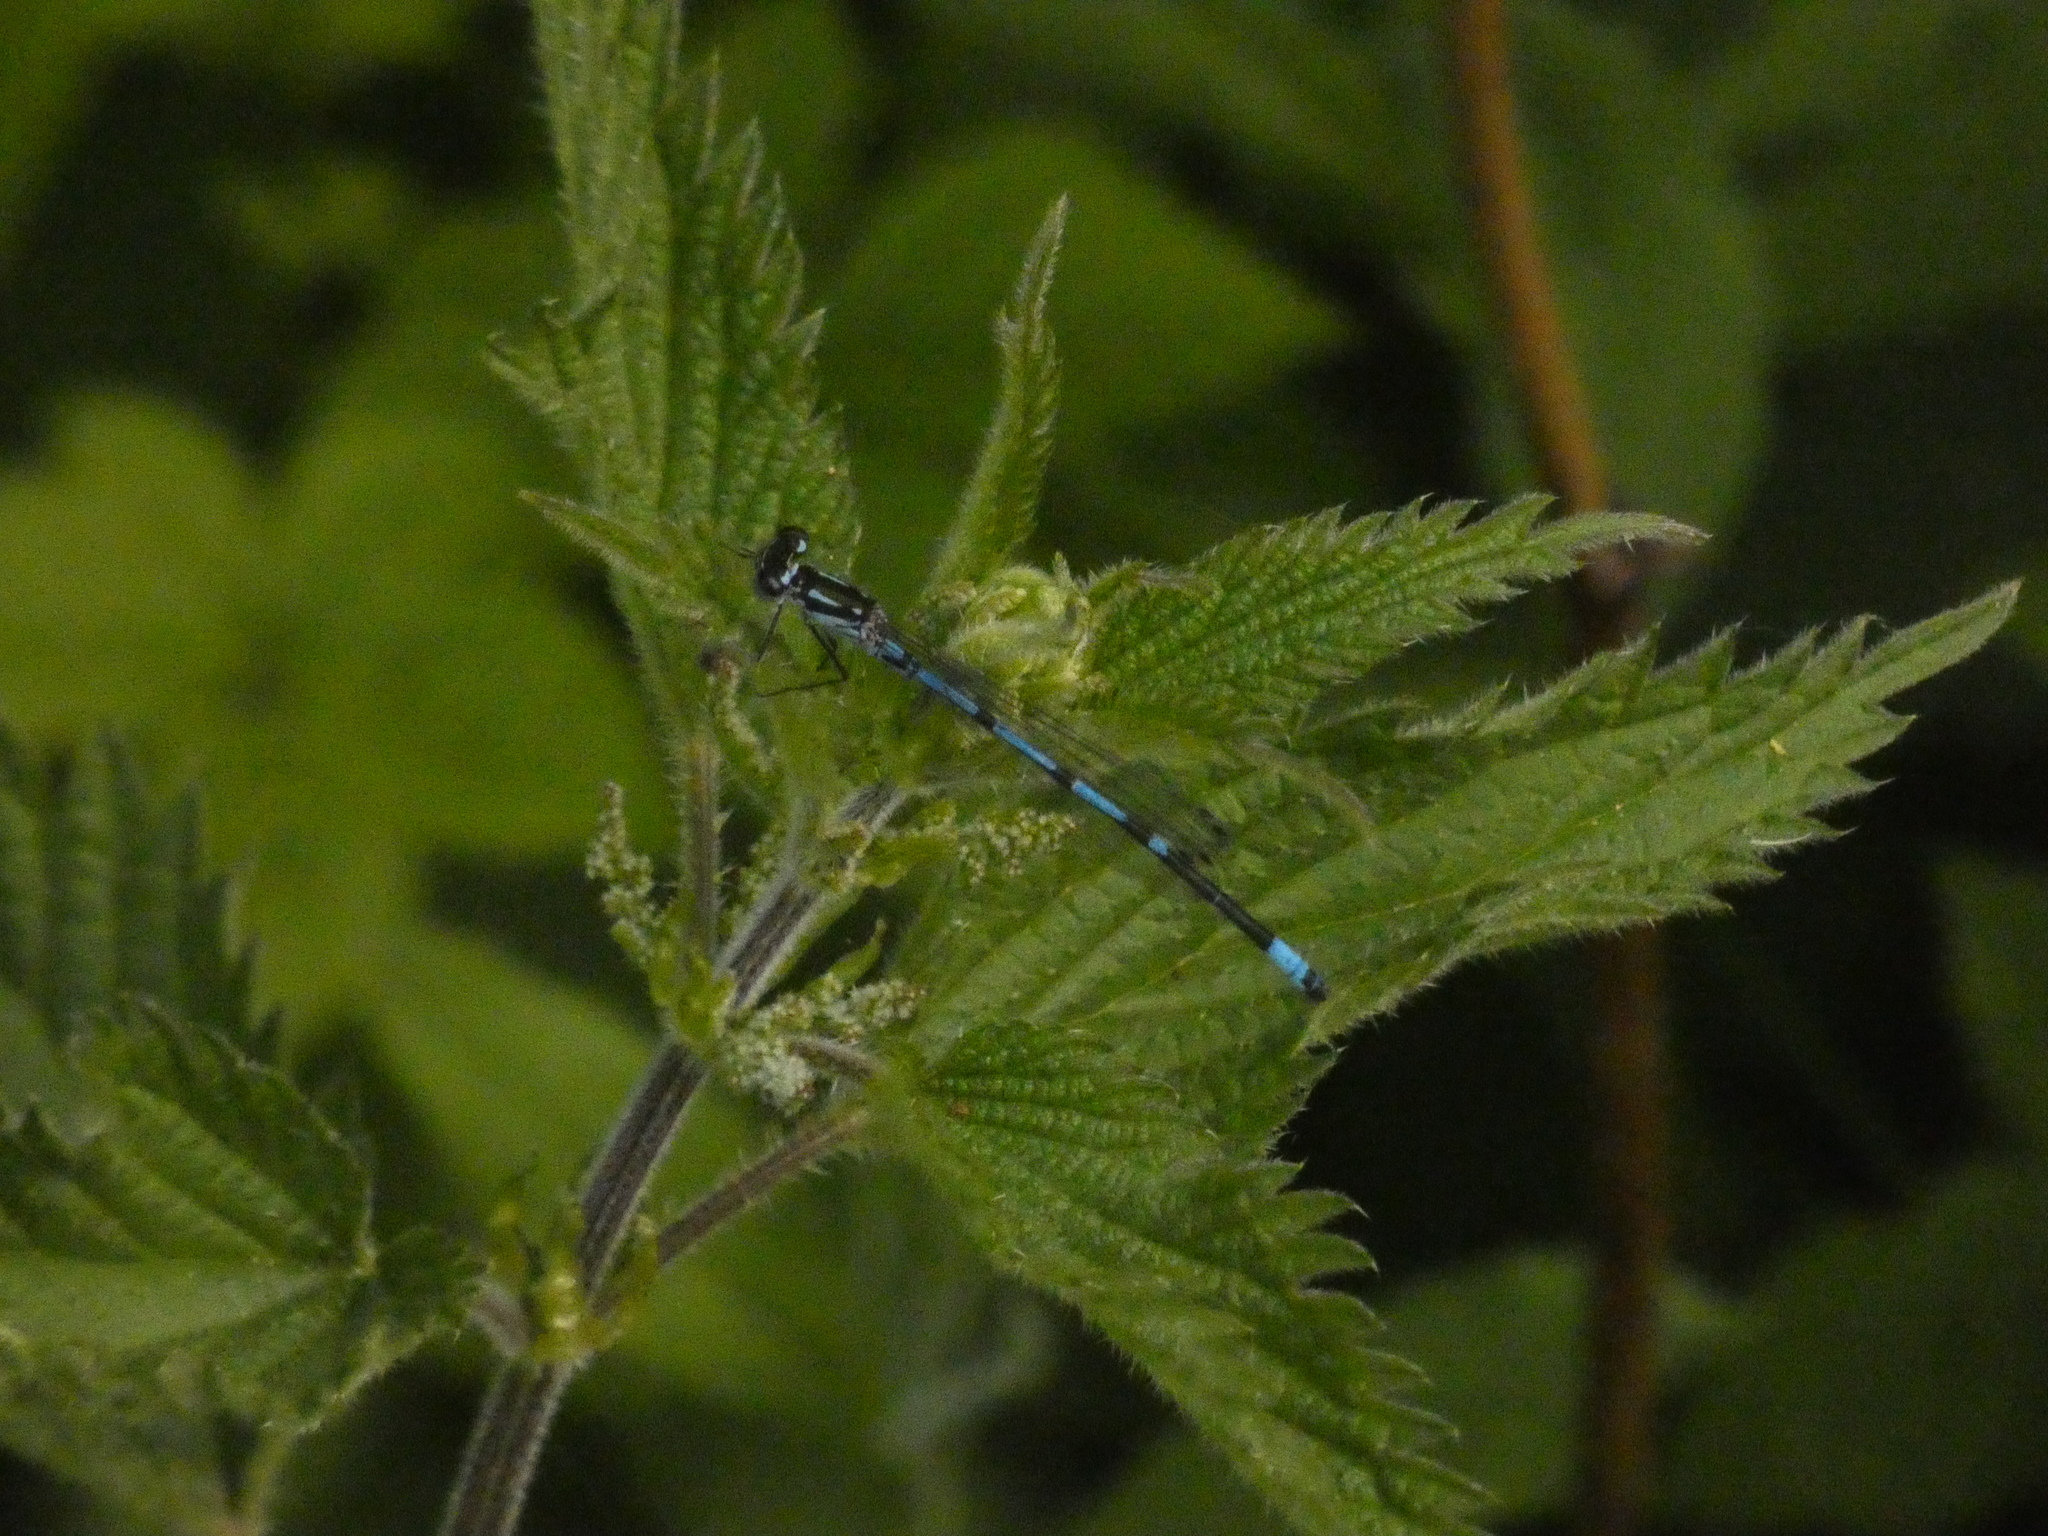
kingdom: Animalia
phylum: Arthropoda
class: Insecta
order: Odonata
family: Coenagrionidae
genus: Coenagrion
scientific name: Coenagrion pulchellum
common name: Variable bluet
